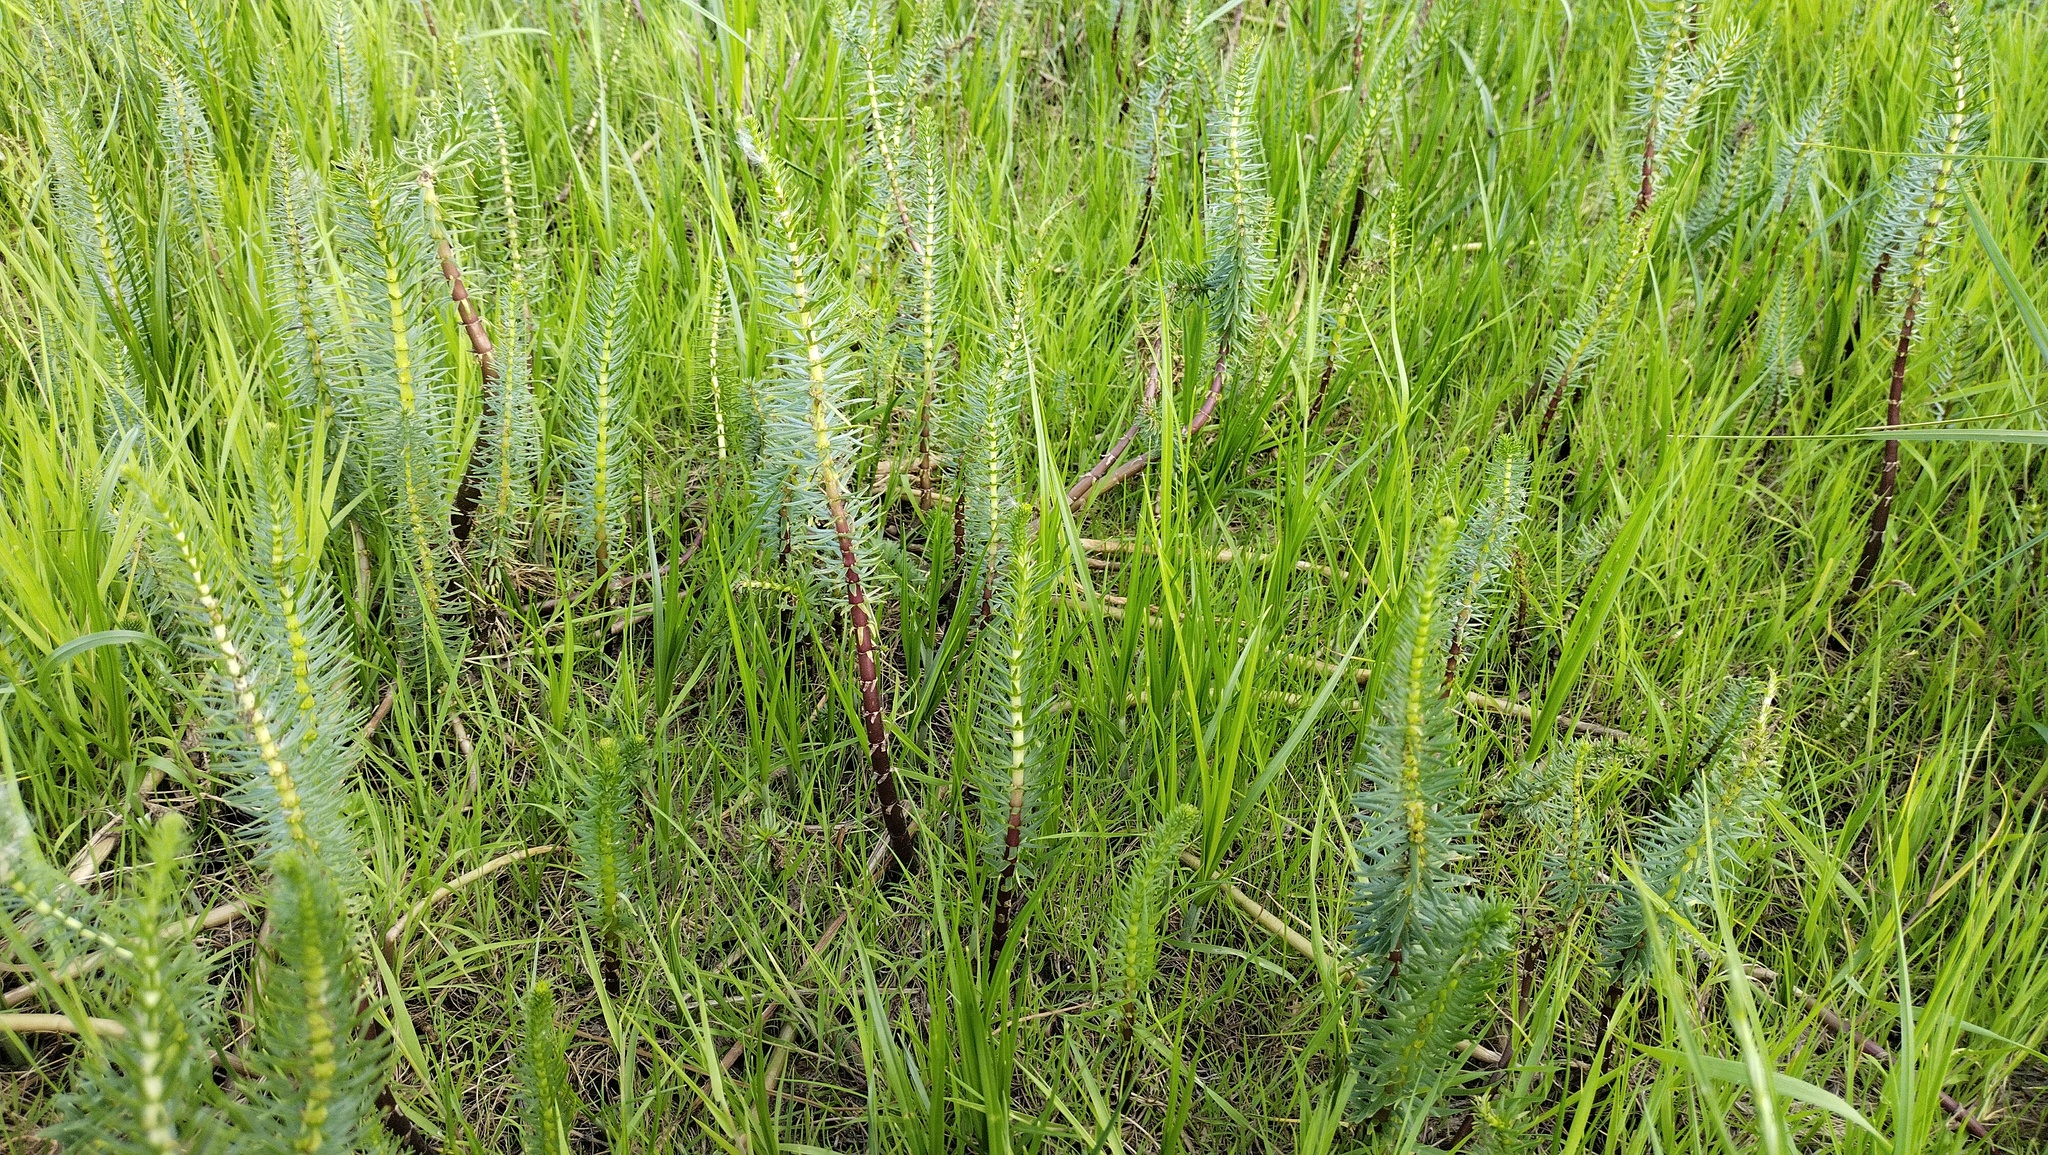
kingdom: Plantae
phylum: Tracheophyta
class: Magnoliopsida
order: Lamiales
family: Plantaginaceae
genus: Hippuris
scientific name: Hippuris vulgaris
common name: Mare's-tail
